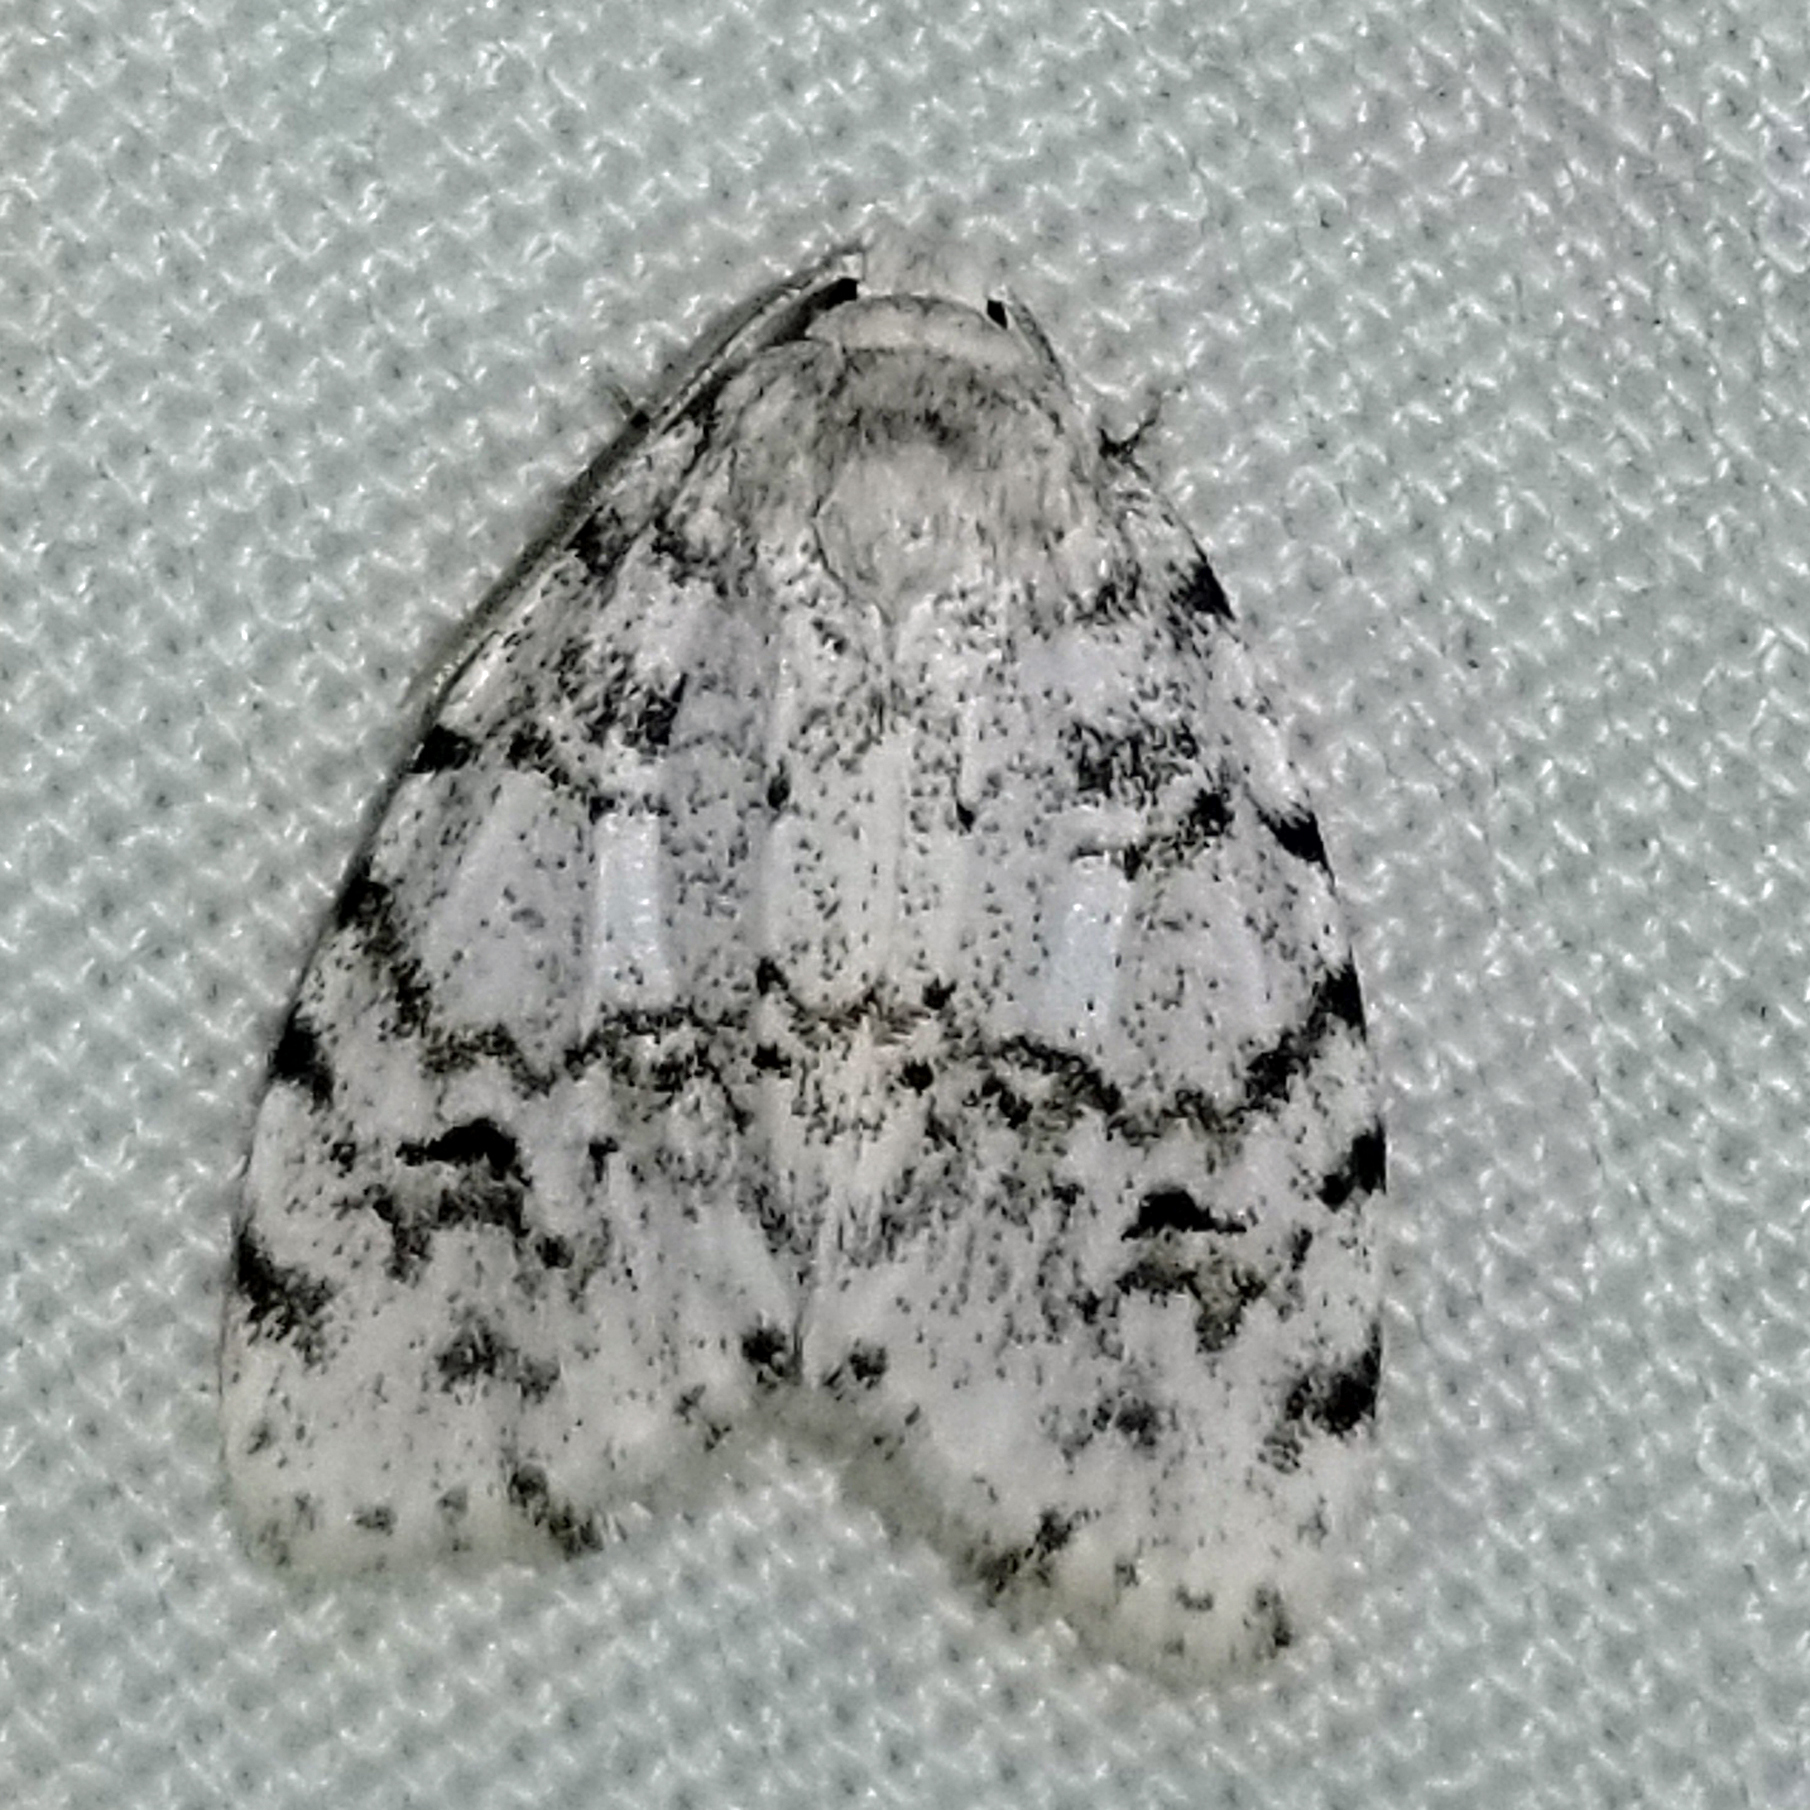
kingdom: Animalia
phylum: Arthropoda
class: Insecta
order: Lepidoptera
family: Erebidae
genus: Clemensia
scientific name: Clemensia albata
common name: Little white lichen moth
